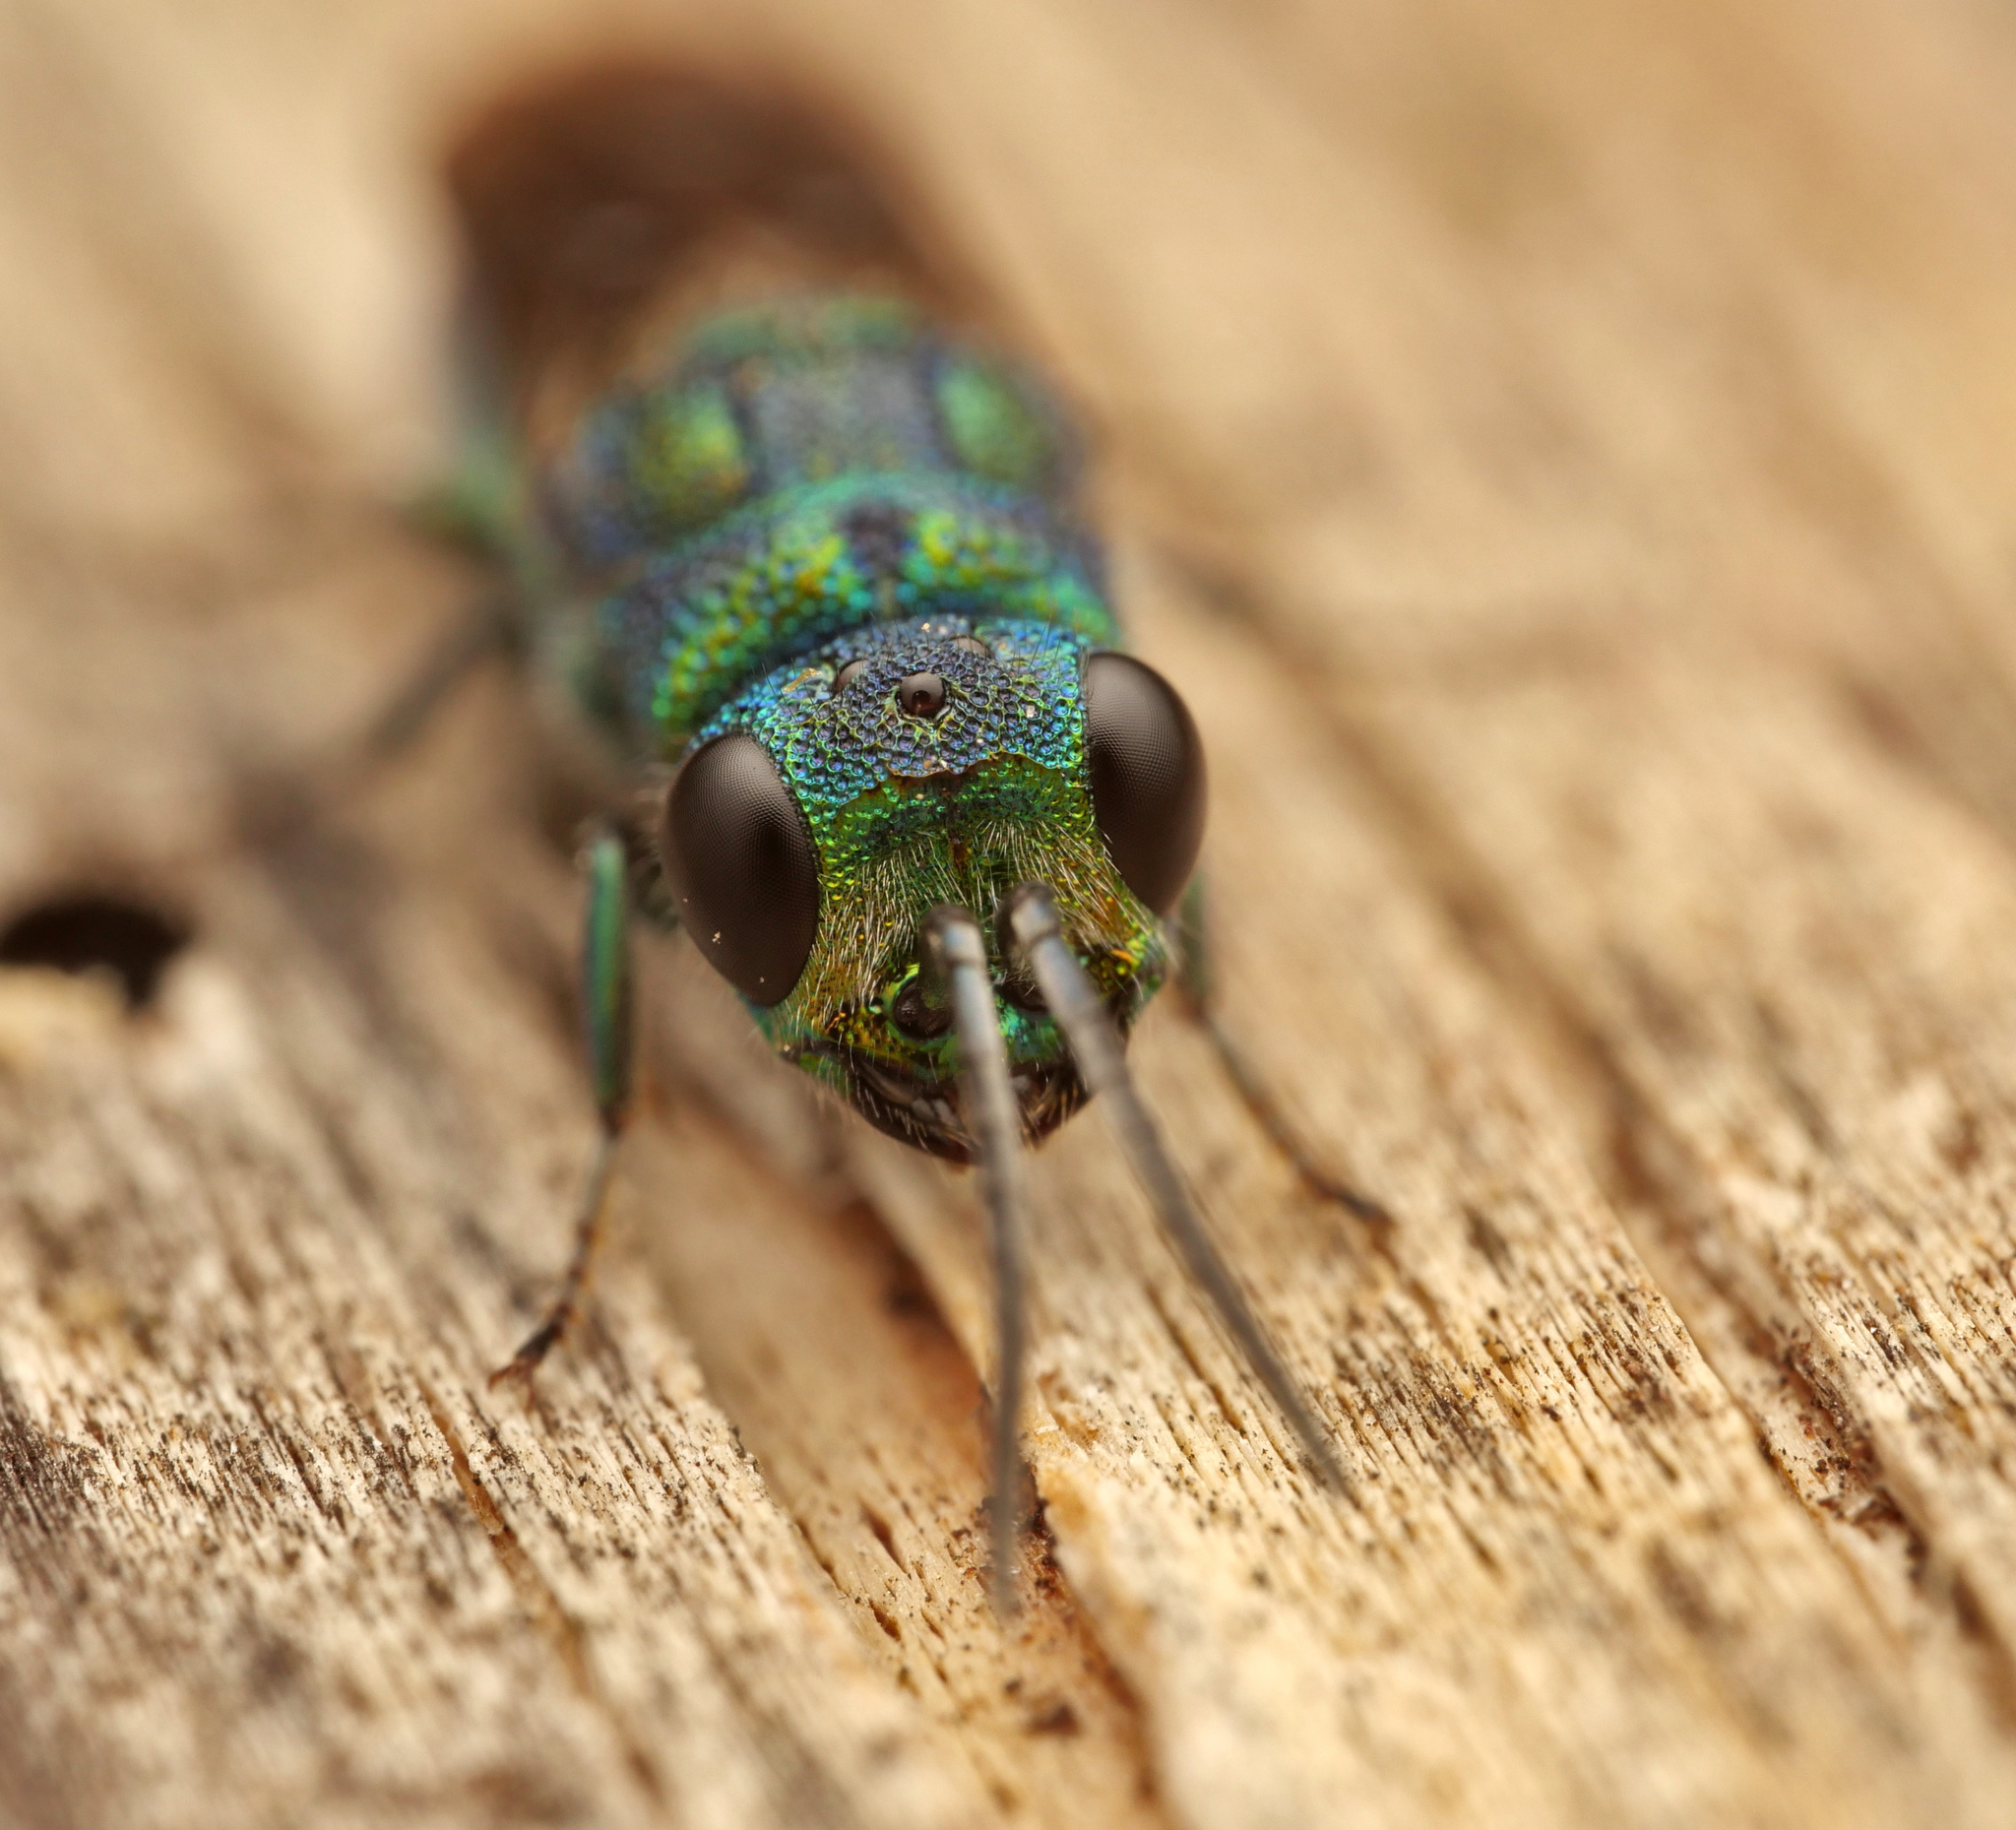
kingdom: Animalia
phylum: Arthropoda
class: Insecta
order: Hymenoptera
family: Chrysididae
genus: Chrysis
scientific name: Chrysis iris
